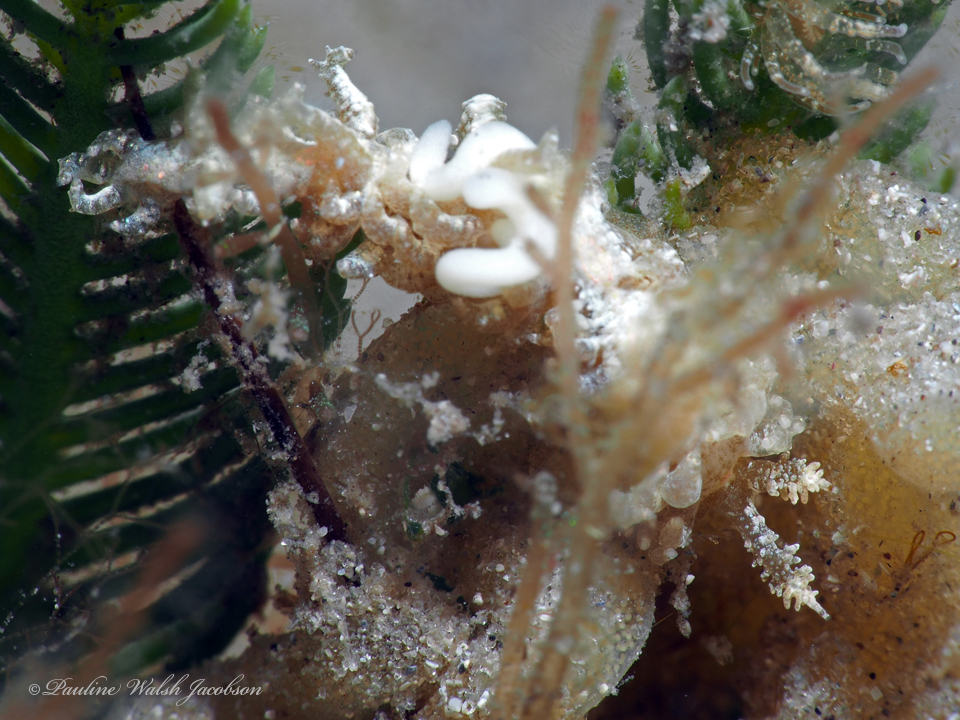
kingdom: Animalia
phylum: Mollusca
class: Gastropoda
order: Nudibranchia
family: Aeolidiidae
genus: Limenandra
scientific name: Limenandra nodosa
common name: Warty baeolidia
